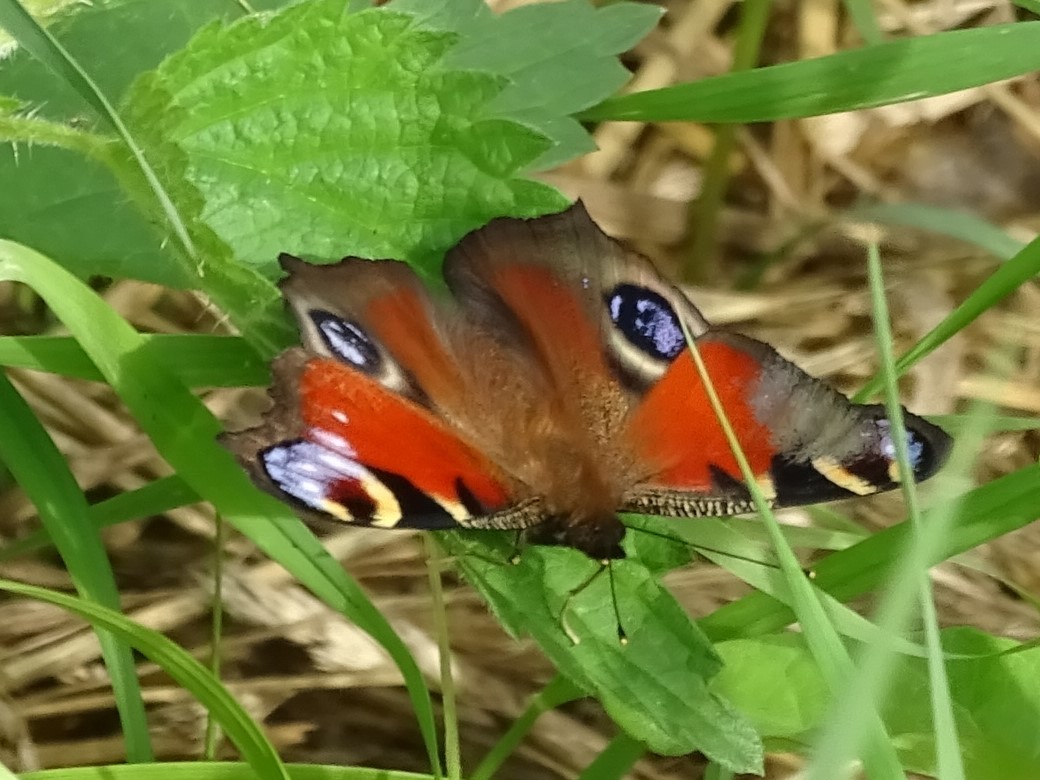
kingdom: Animalia
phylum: Arthropoda
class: Insecta
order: Lepidoptera
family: Nymphalidae
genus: Aglais
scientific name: Aglais io
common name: Peacock
